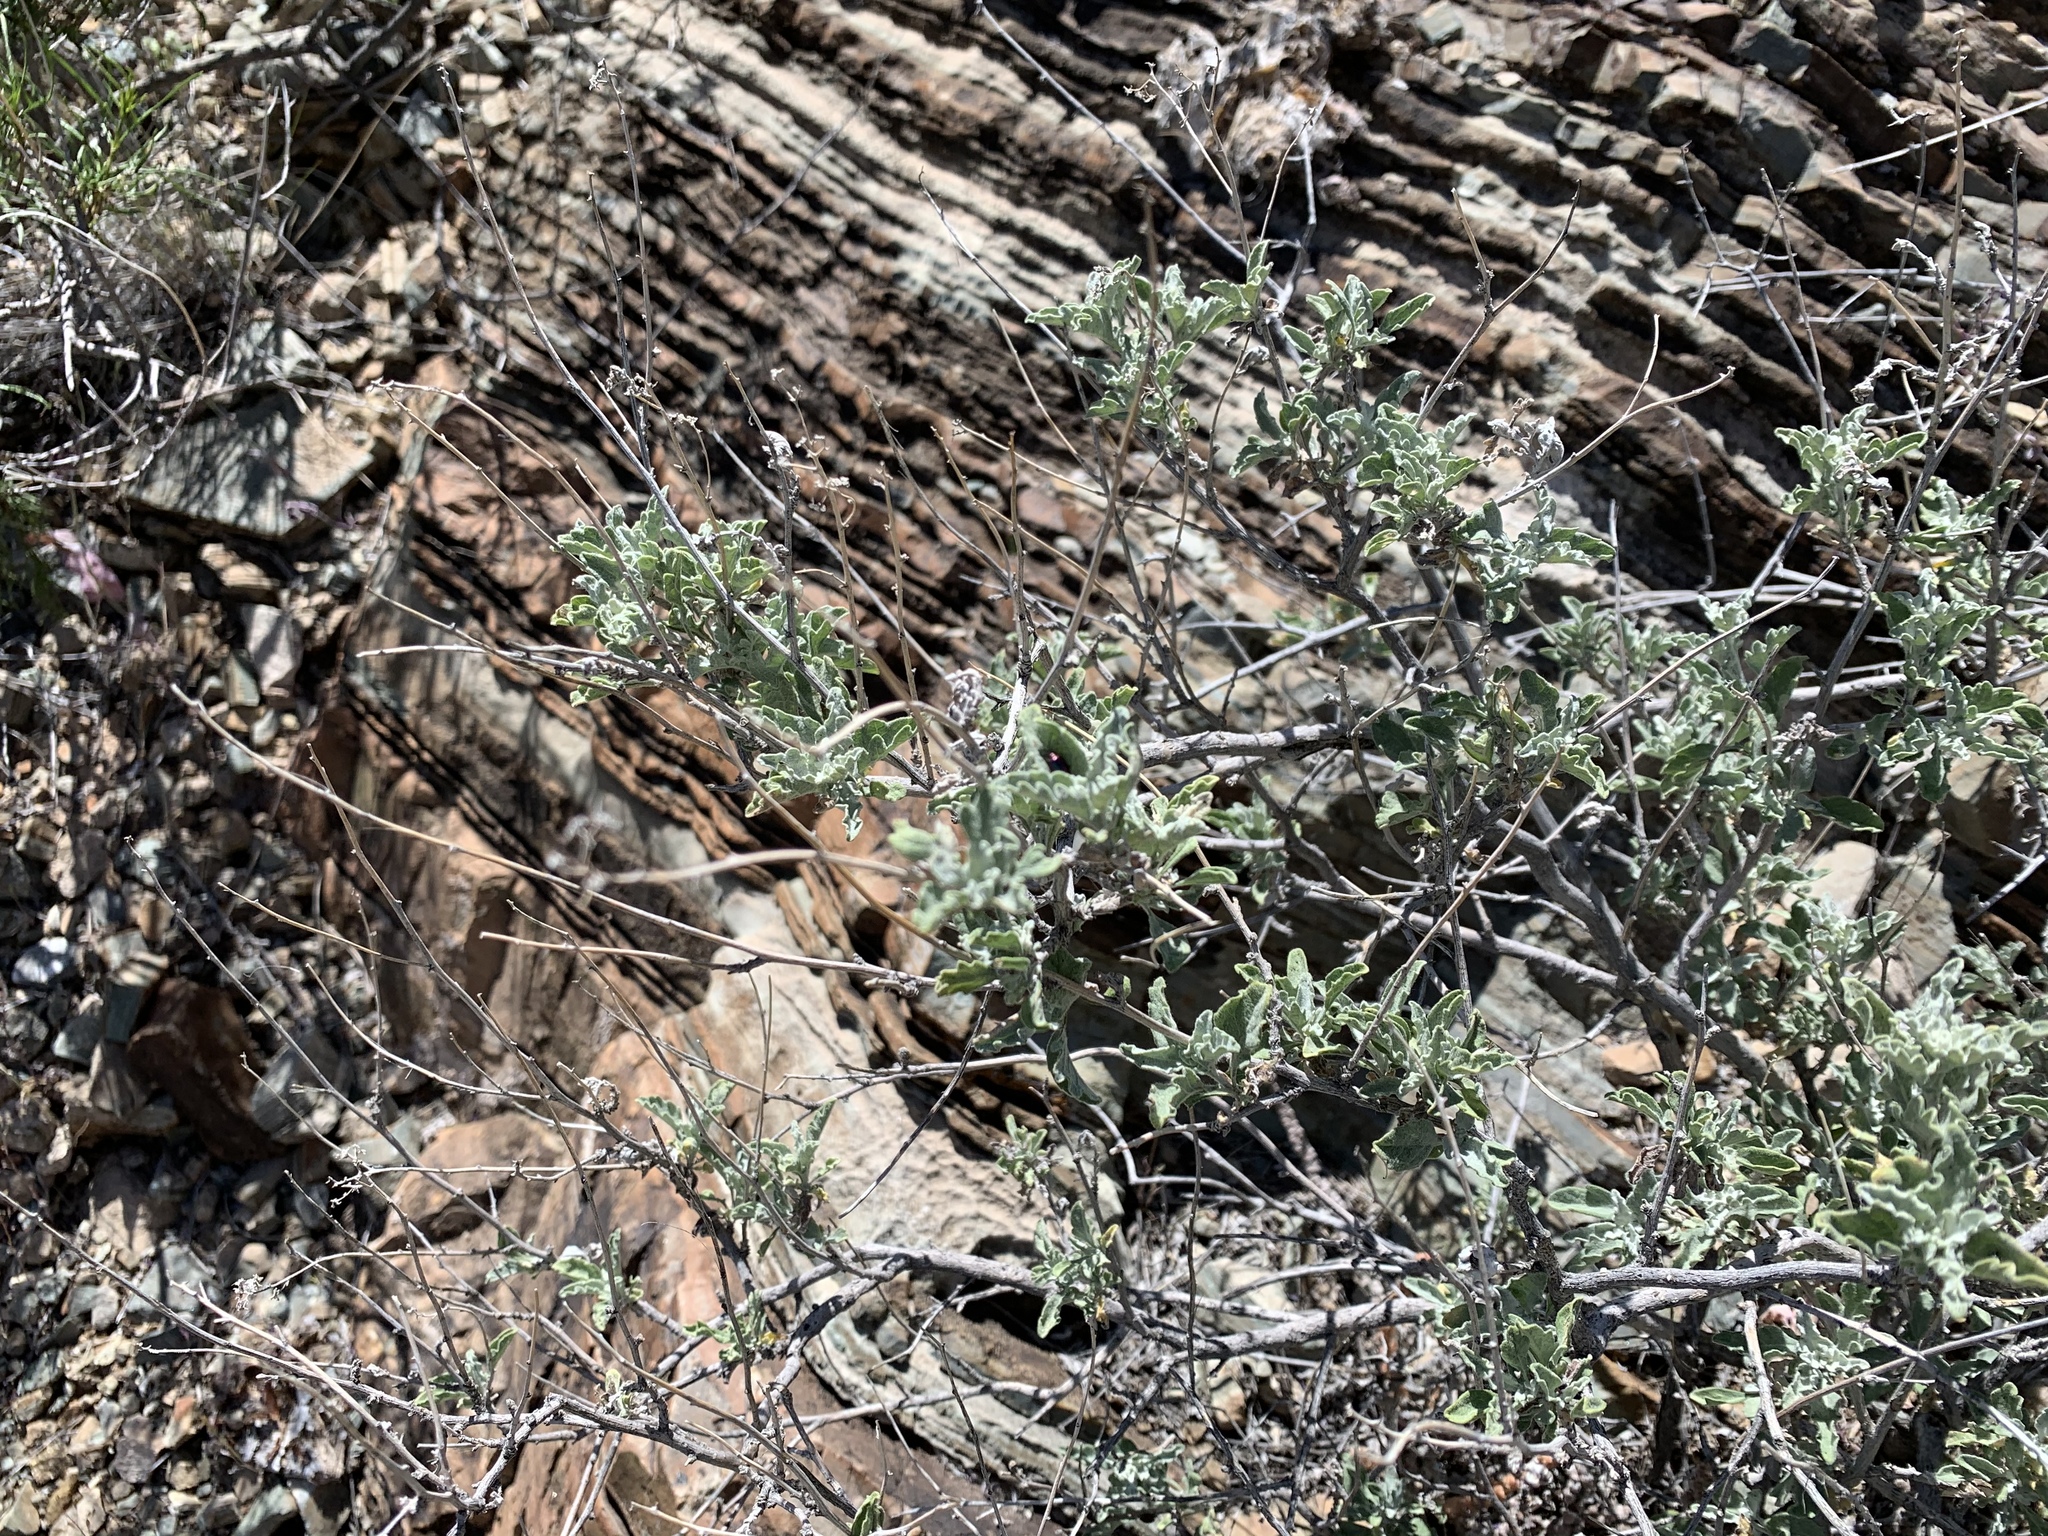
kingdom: Plantae
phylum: Tracheophyta
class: Magnoliopsida
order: Asterales
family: Asteraceae
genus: Parthenium
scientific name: Parthenium incanum
